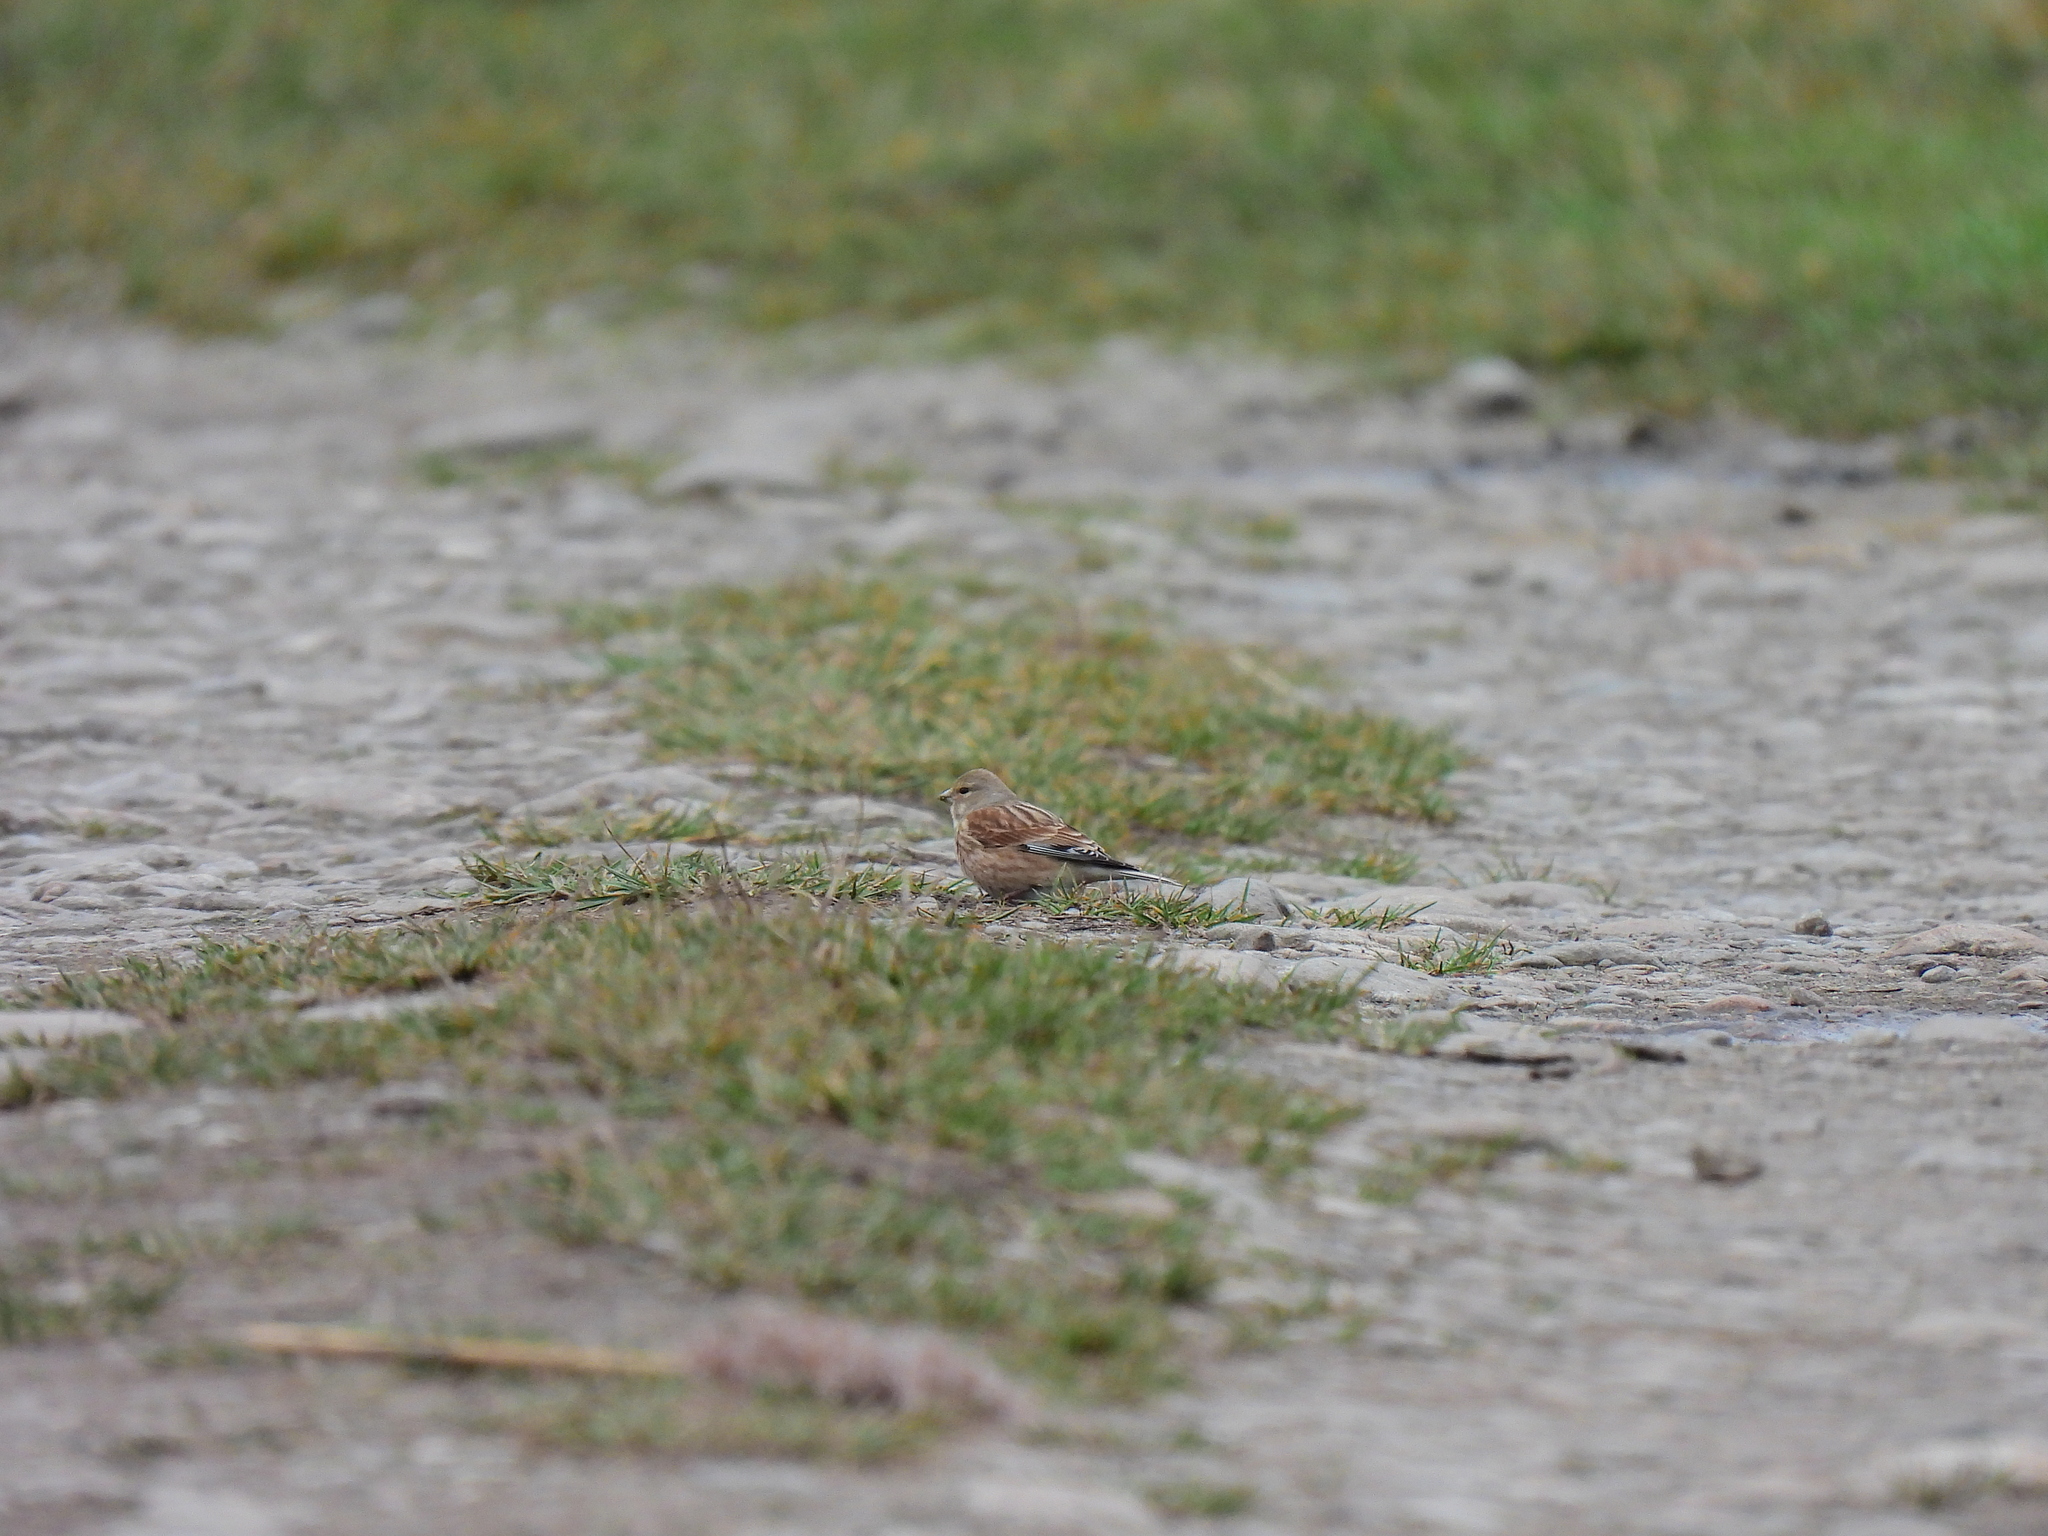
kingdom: Animalia
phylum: Chordata
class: Aves
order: Passeriformes
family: Fringillidae
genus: Linaria
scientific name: Linaria cannabina
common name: Common linnet
